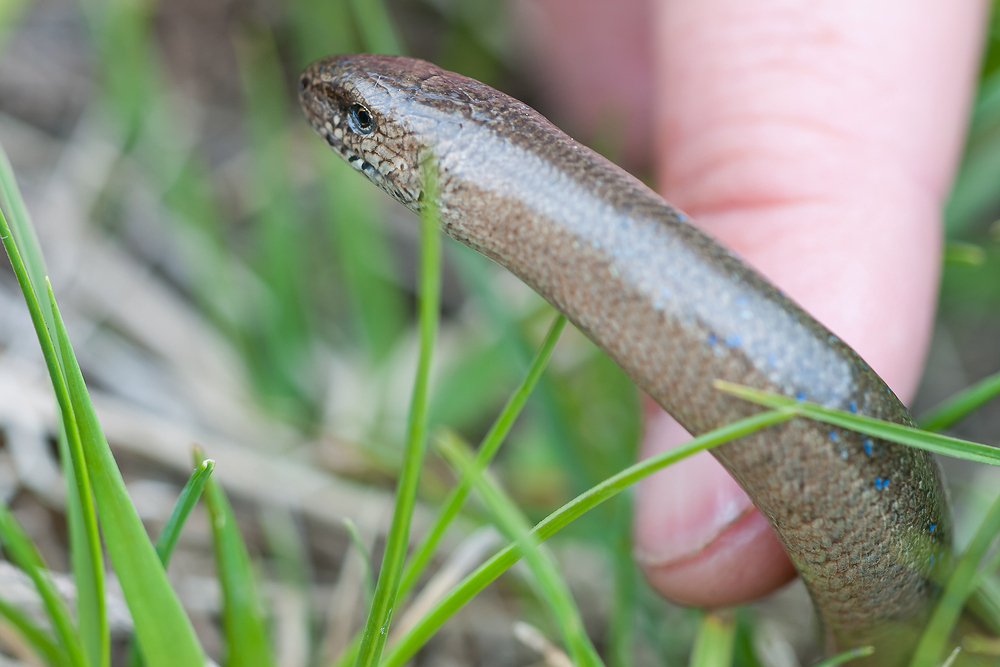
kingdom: Animalia
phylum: Chordata
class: Squamata
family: Anguidae
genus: Anguis
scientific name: Anguis fragilis
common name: Slow worm
